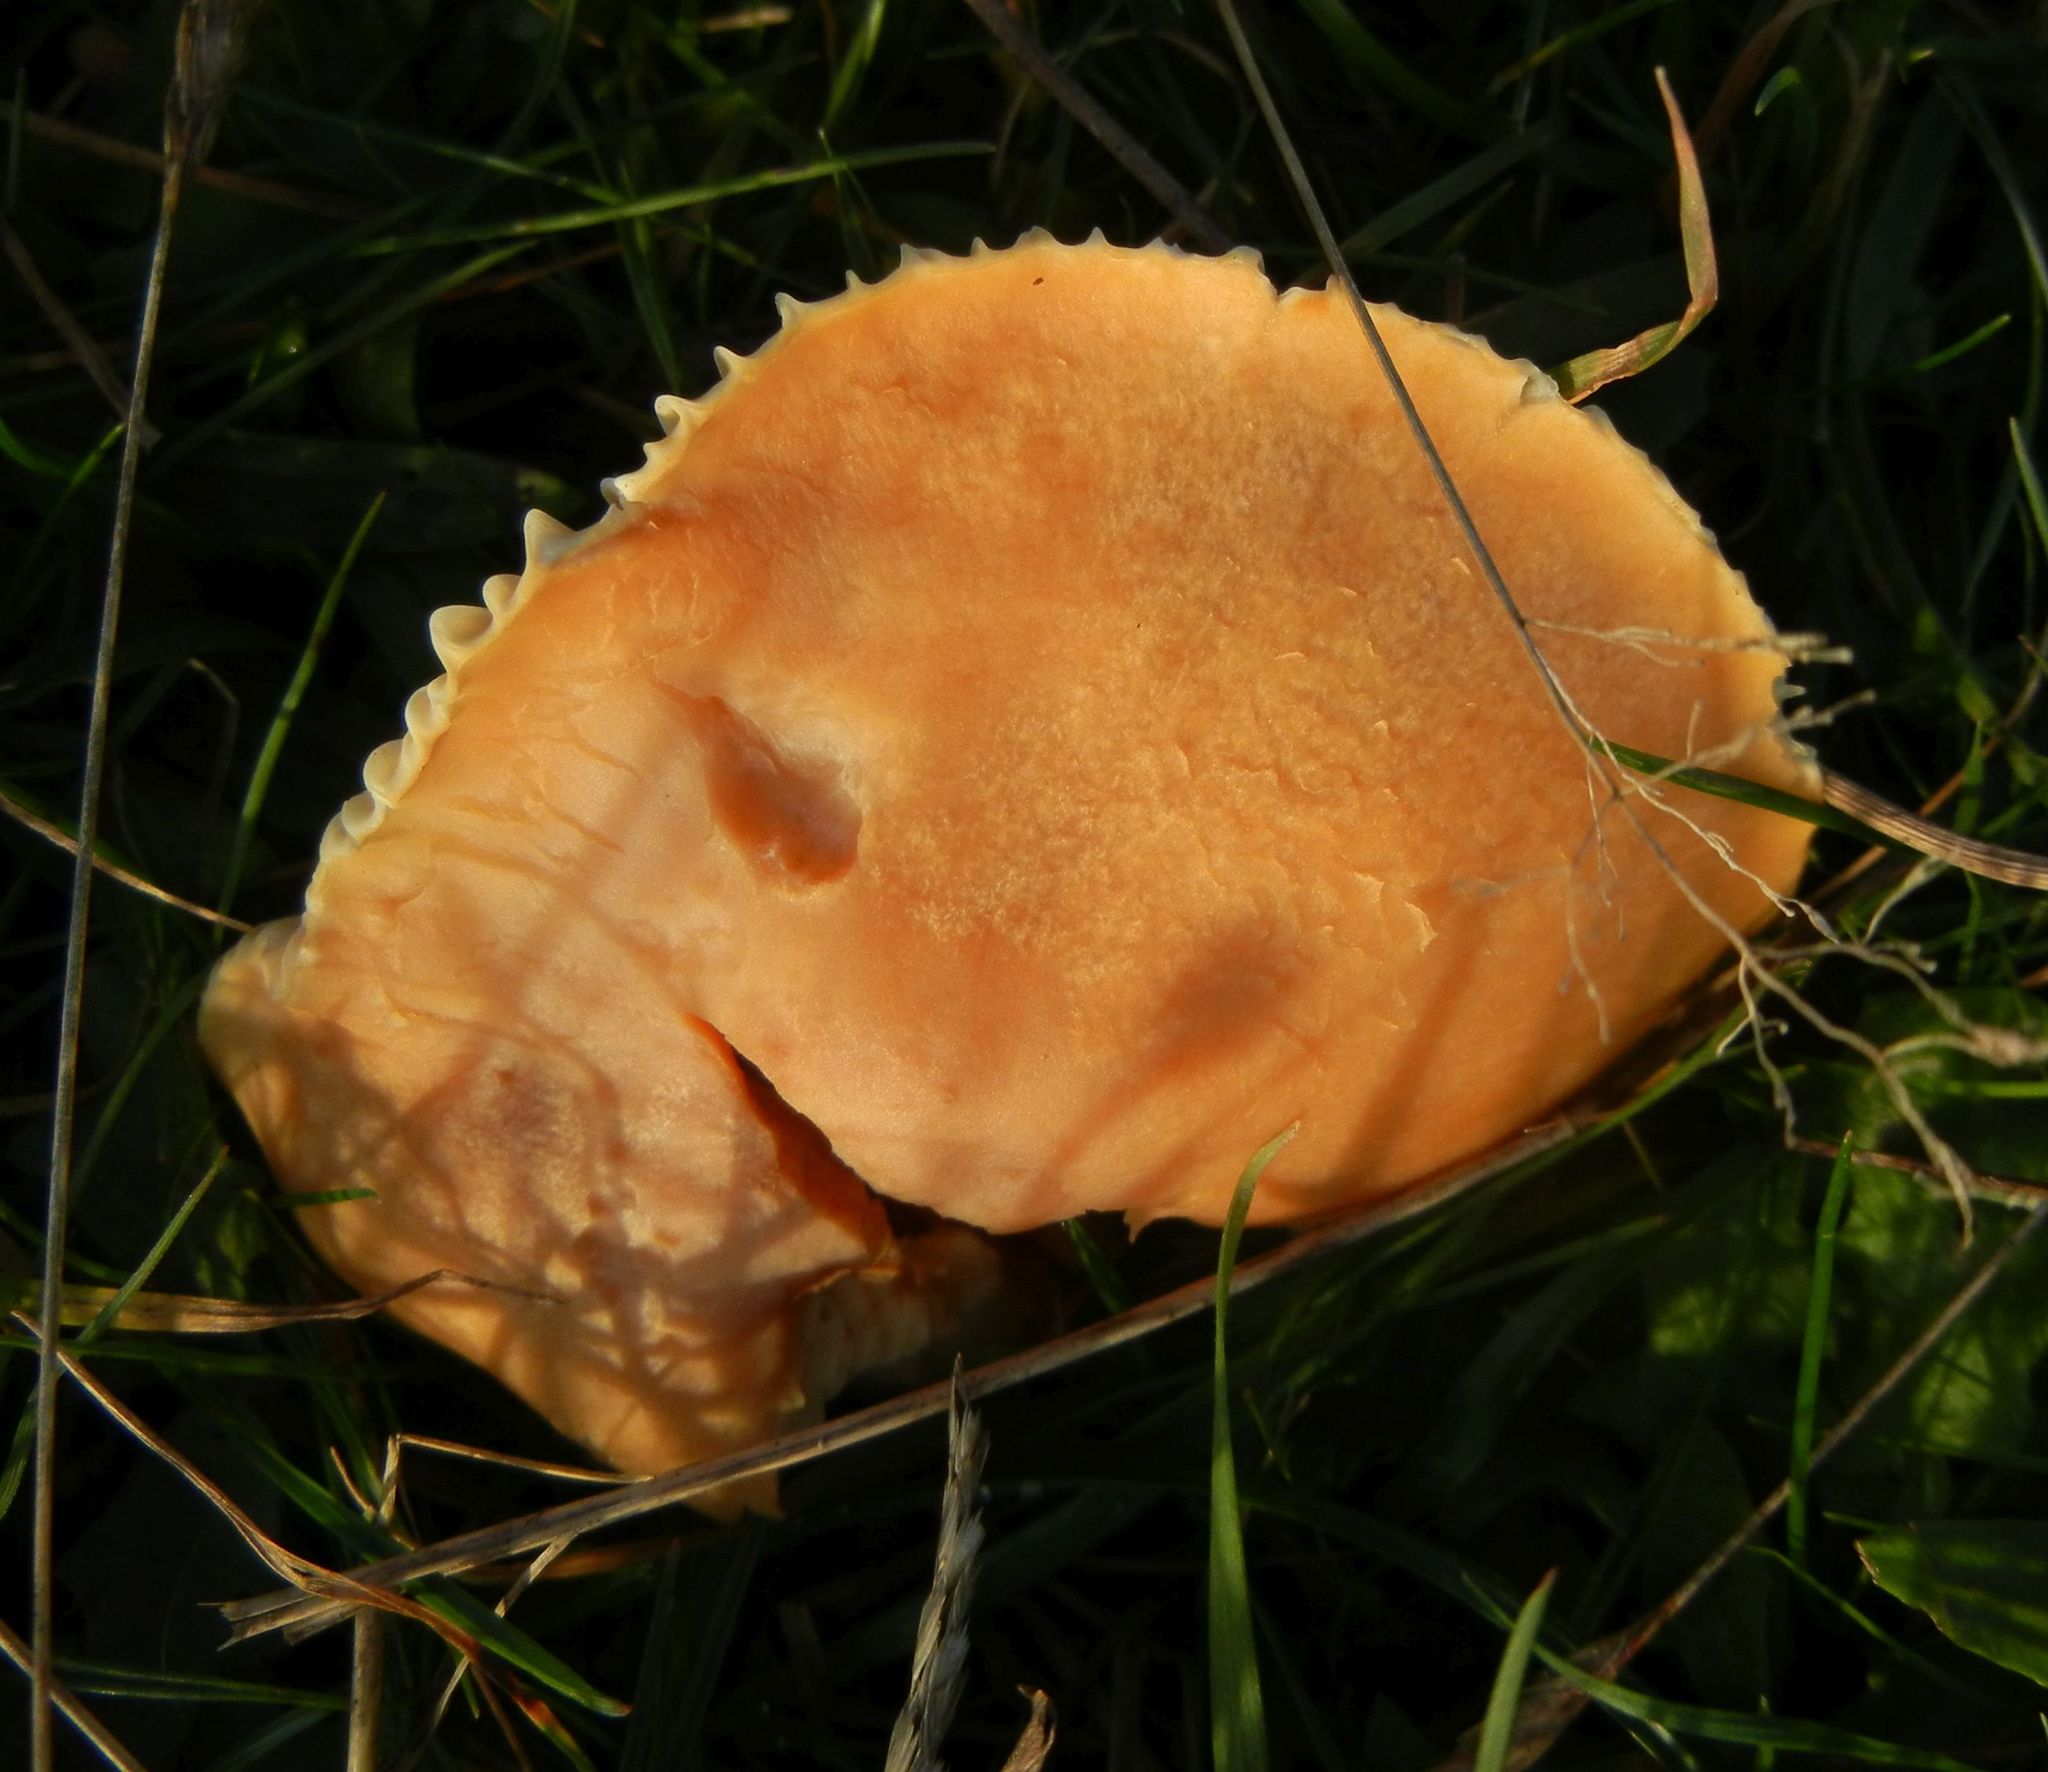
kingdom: Fungi
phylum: Basidiomycota
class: Agaricomycetes
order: Agaricales
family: Hygrophoraceae
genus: Cuphophyllus
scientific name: Cuphophyllus pratensis
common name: Meadow waxcap
